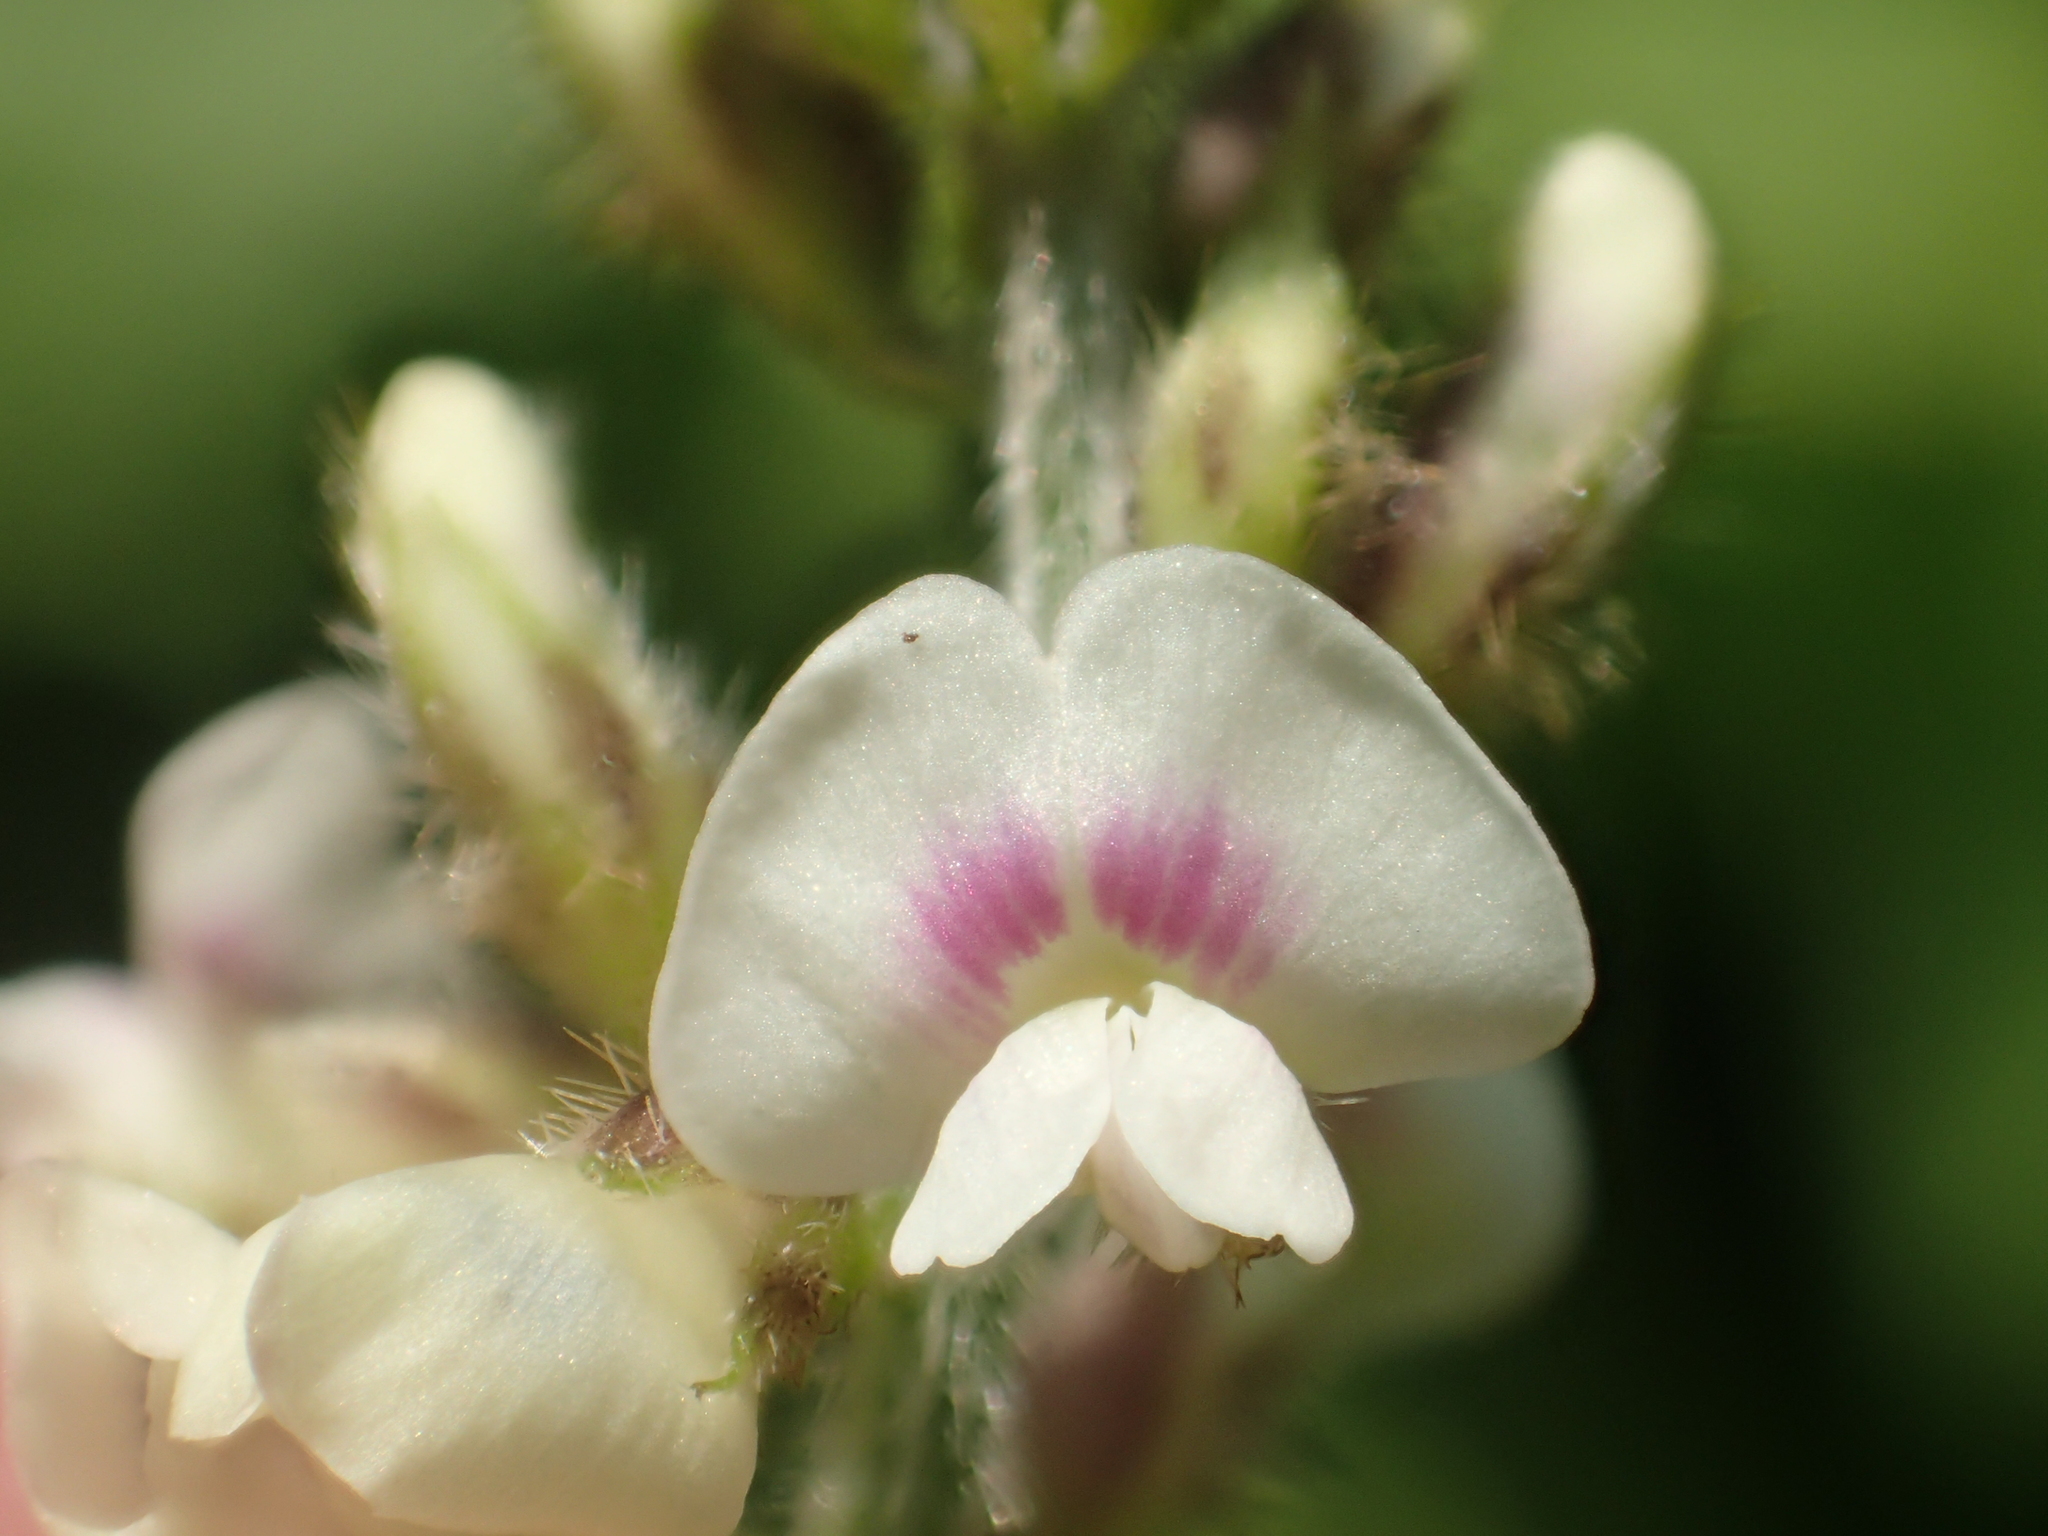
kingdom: Plantae
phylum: Tracheophyta
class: Magnoliopsida
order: Fabales
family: Fabaceae
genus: Neonotonia
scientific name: Neonotonia wightii
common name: Perennial soybean
